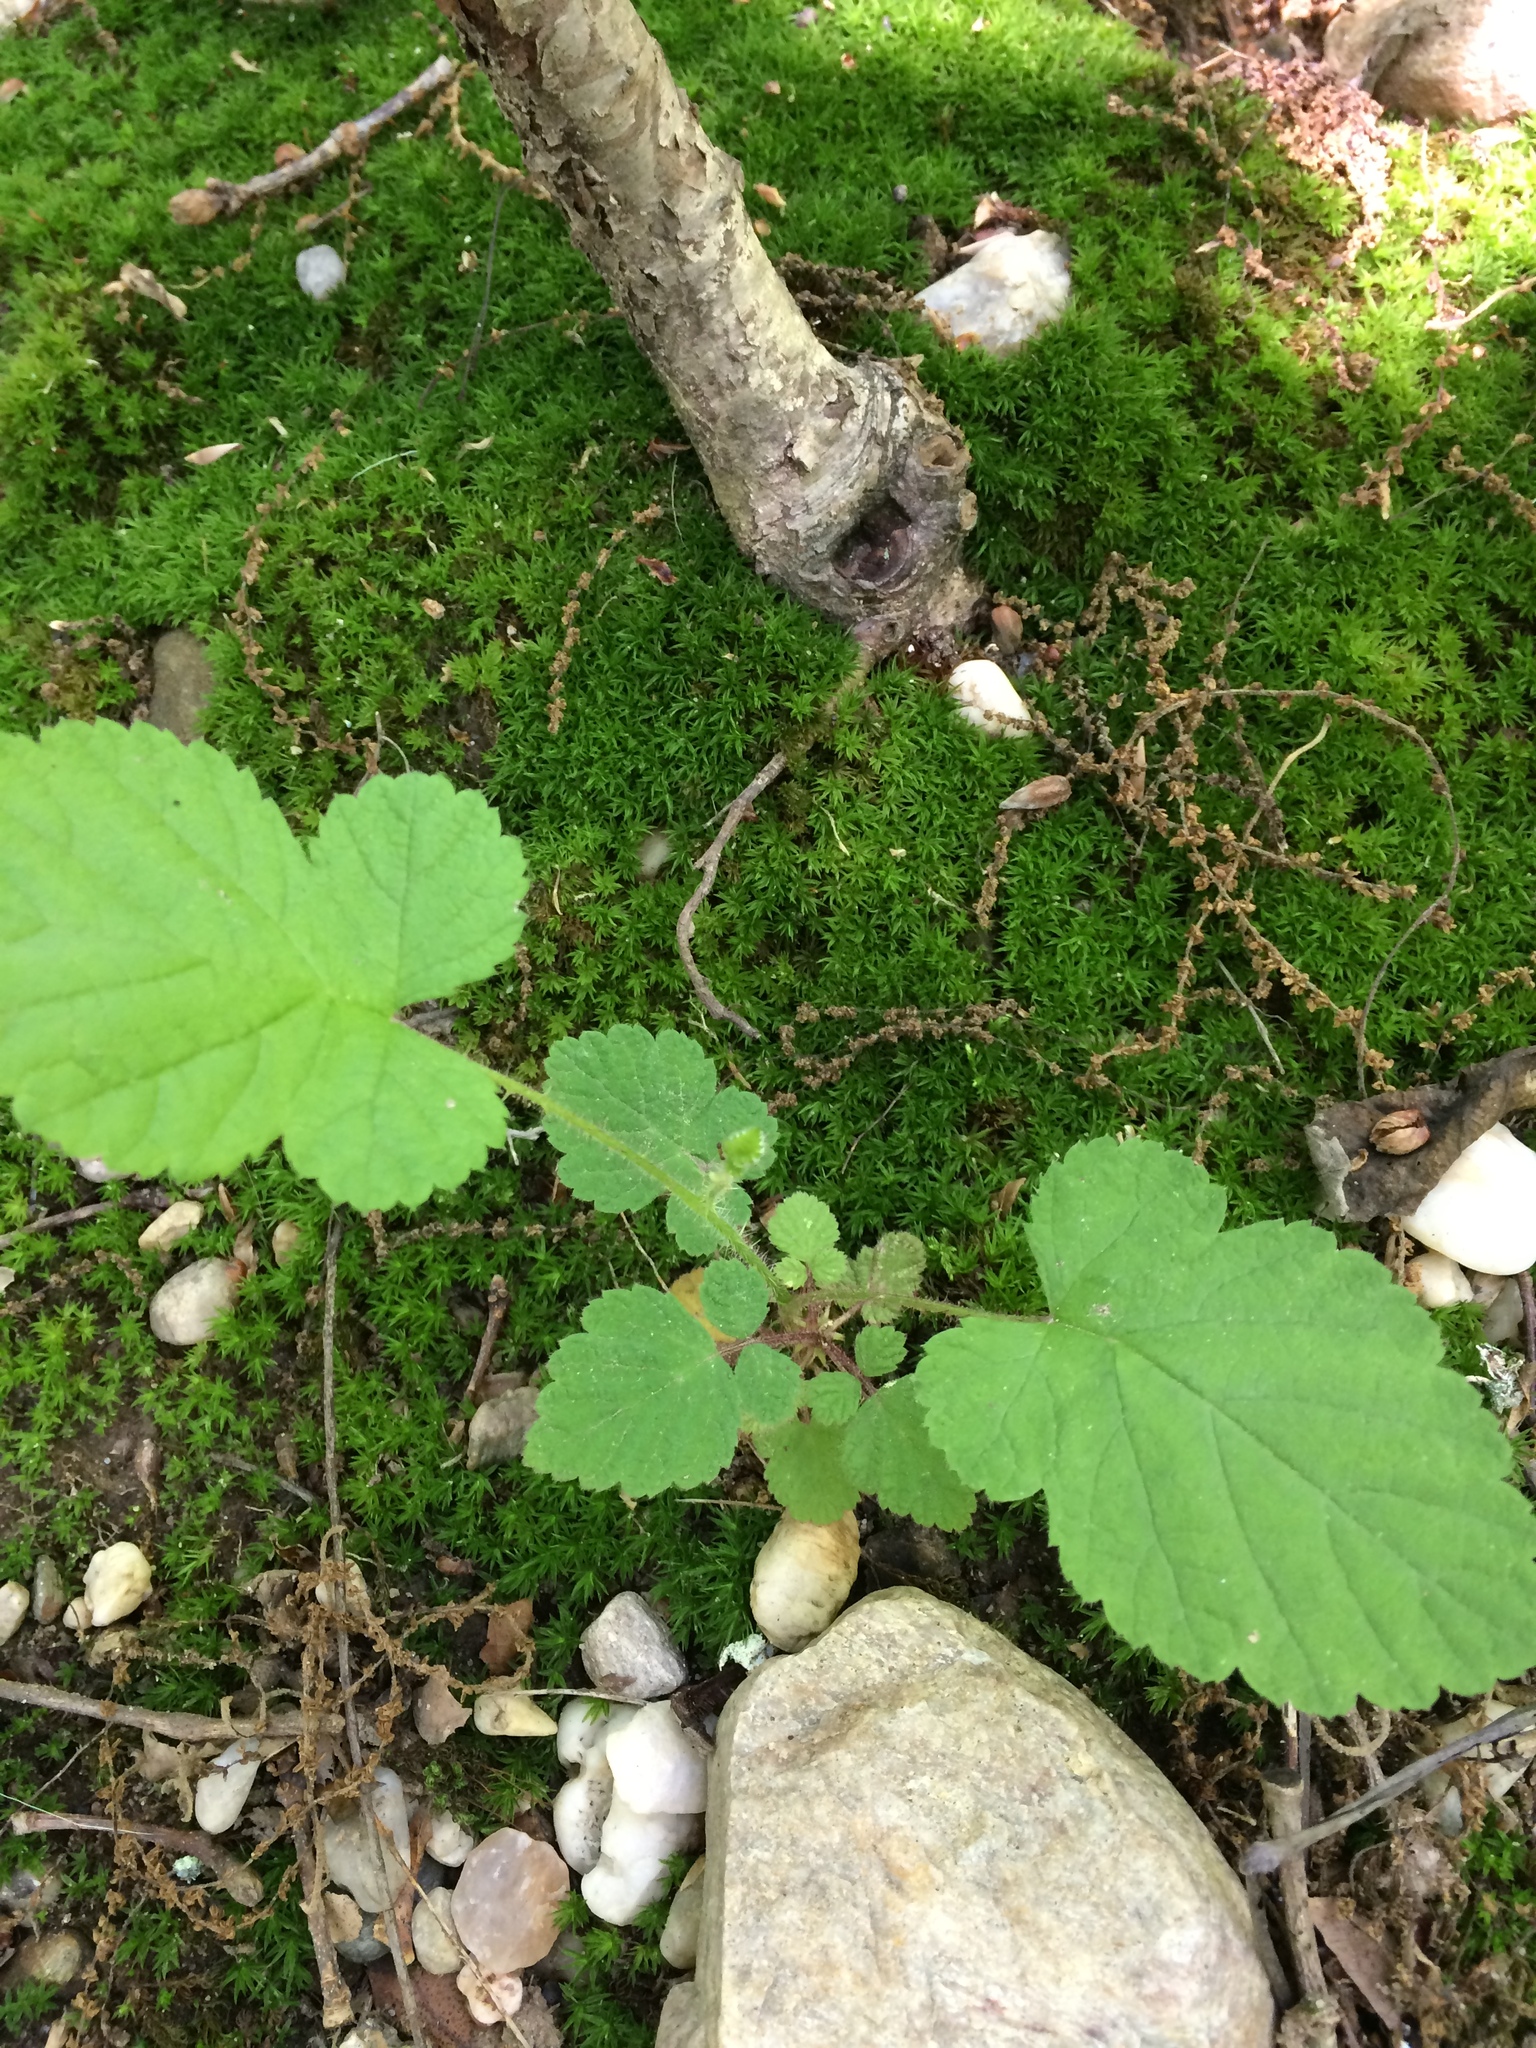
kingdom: Plantae
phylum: Tracheophyta
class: Magnoliopsida
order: Rosales
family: Rosaceae
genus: Rubus
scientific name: Rubus phoenicolasius
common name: Japanese wineberry
